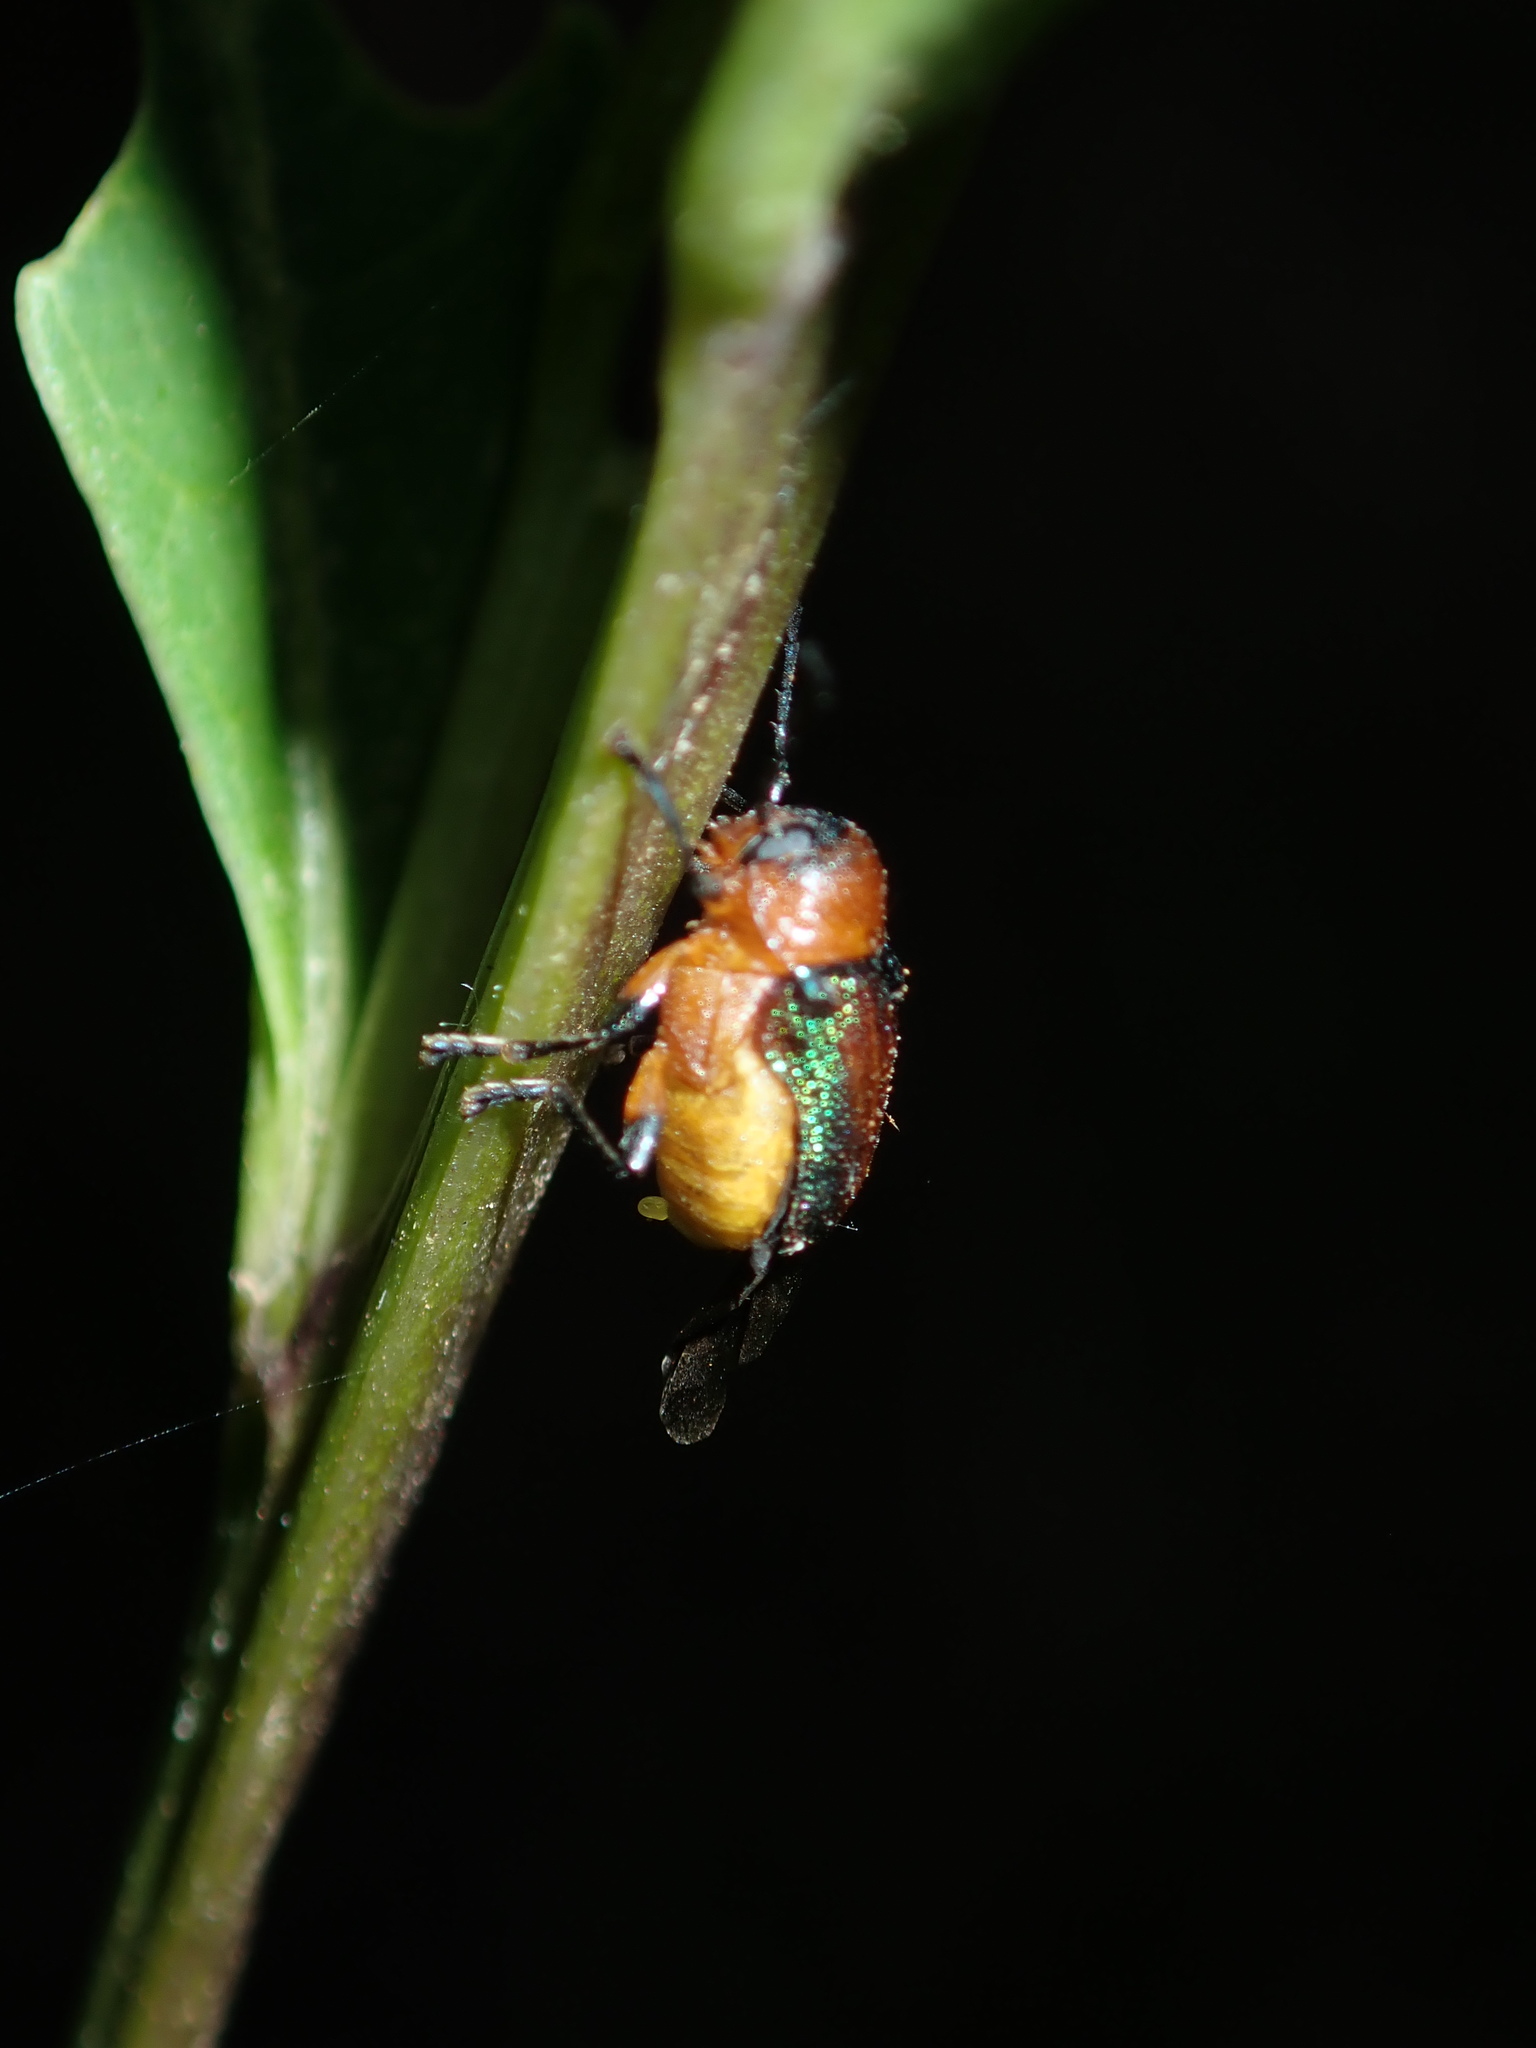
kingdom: Animalia
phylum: Arthropoda
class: Insecta
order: Coleoptera
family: Chrysomelidae
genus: Aporocera
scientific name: Aporocera iridipennis
